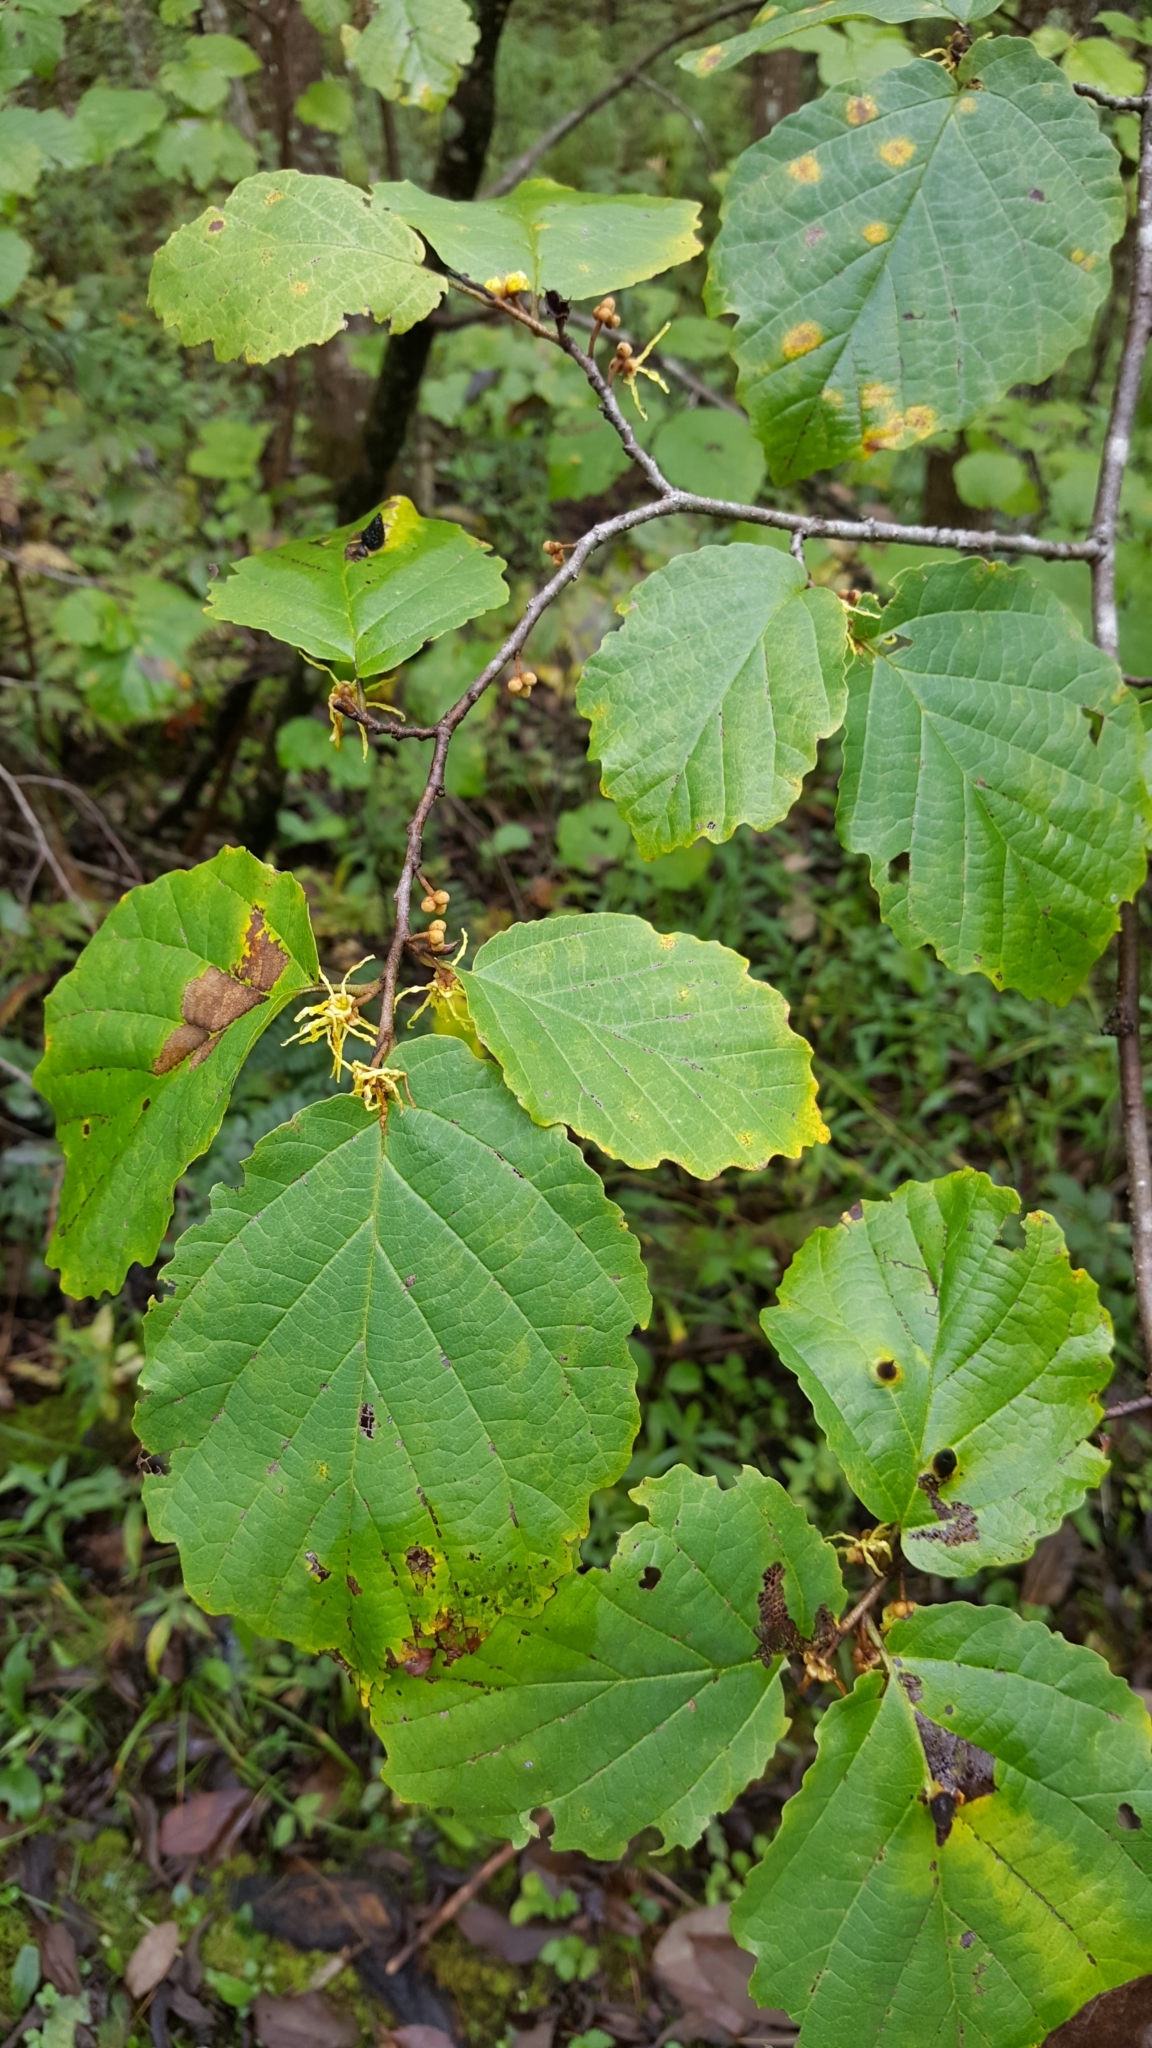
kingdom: Plantae
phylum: Tracheophyta
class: Magnoliopsida
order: Saxifragales
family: Hamamelidaceae
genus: Hamamelis
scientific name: Hamamelis virginiana
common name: Witch-hazel
